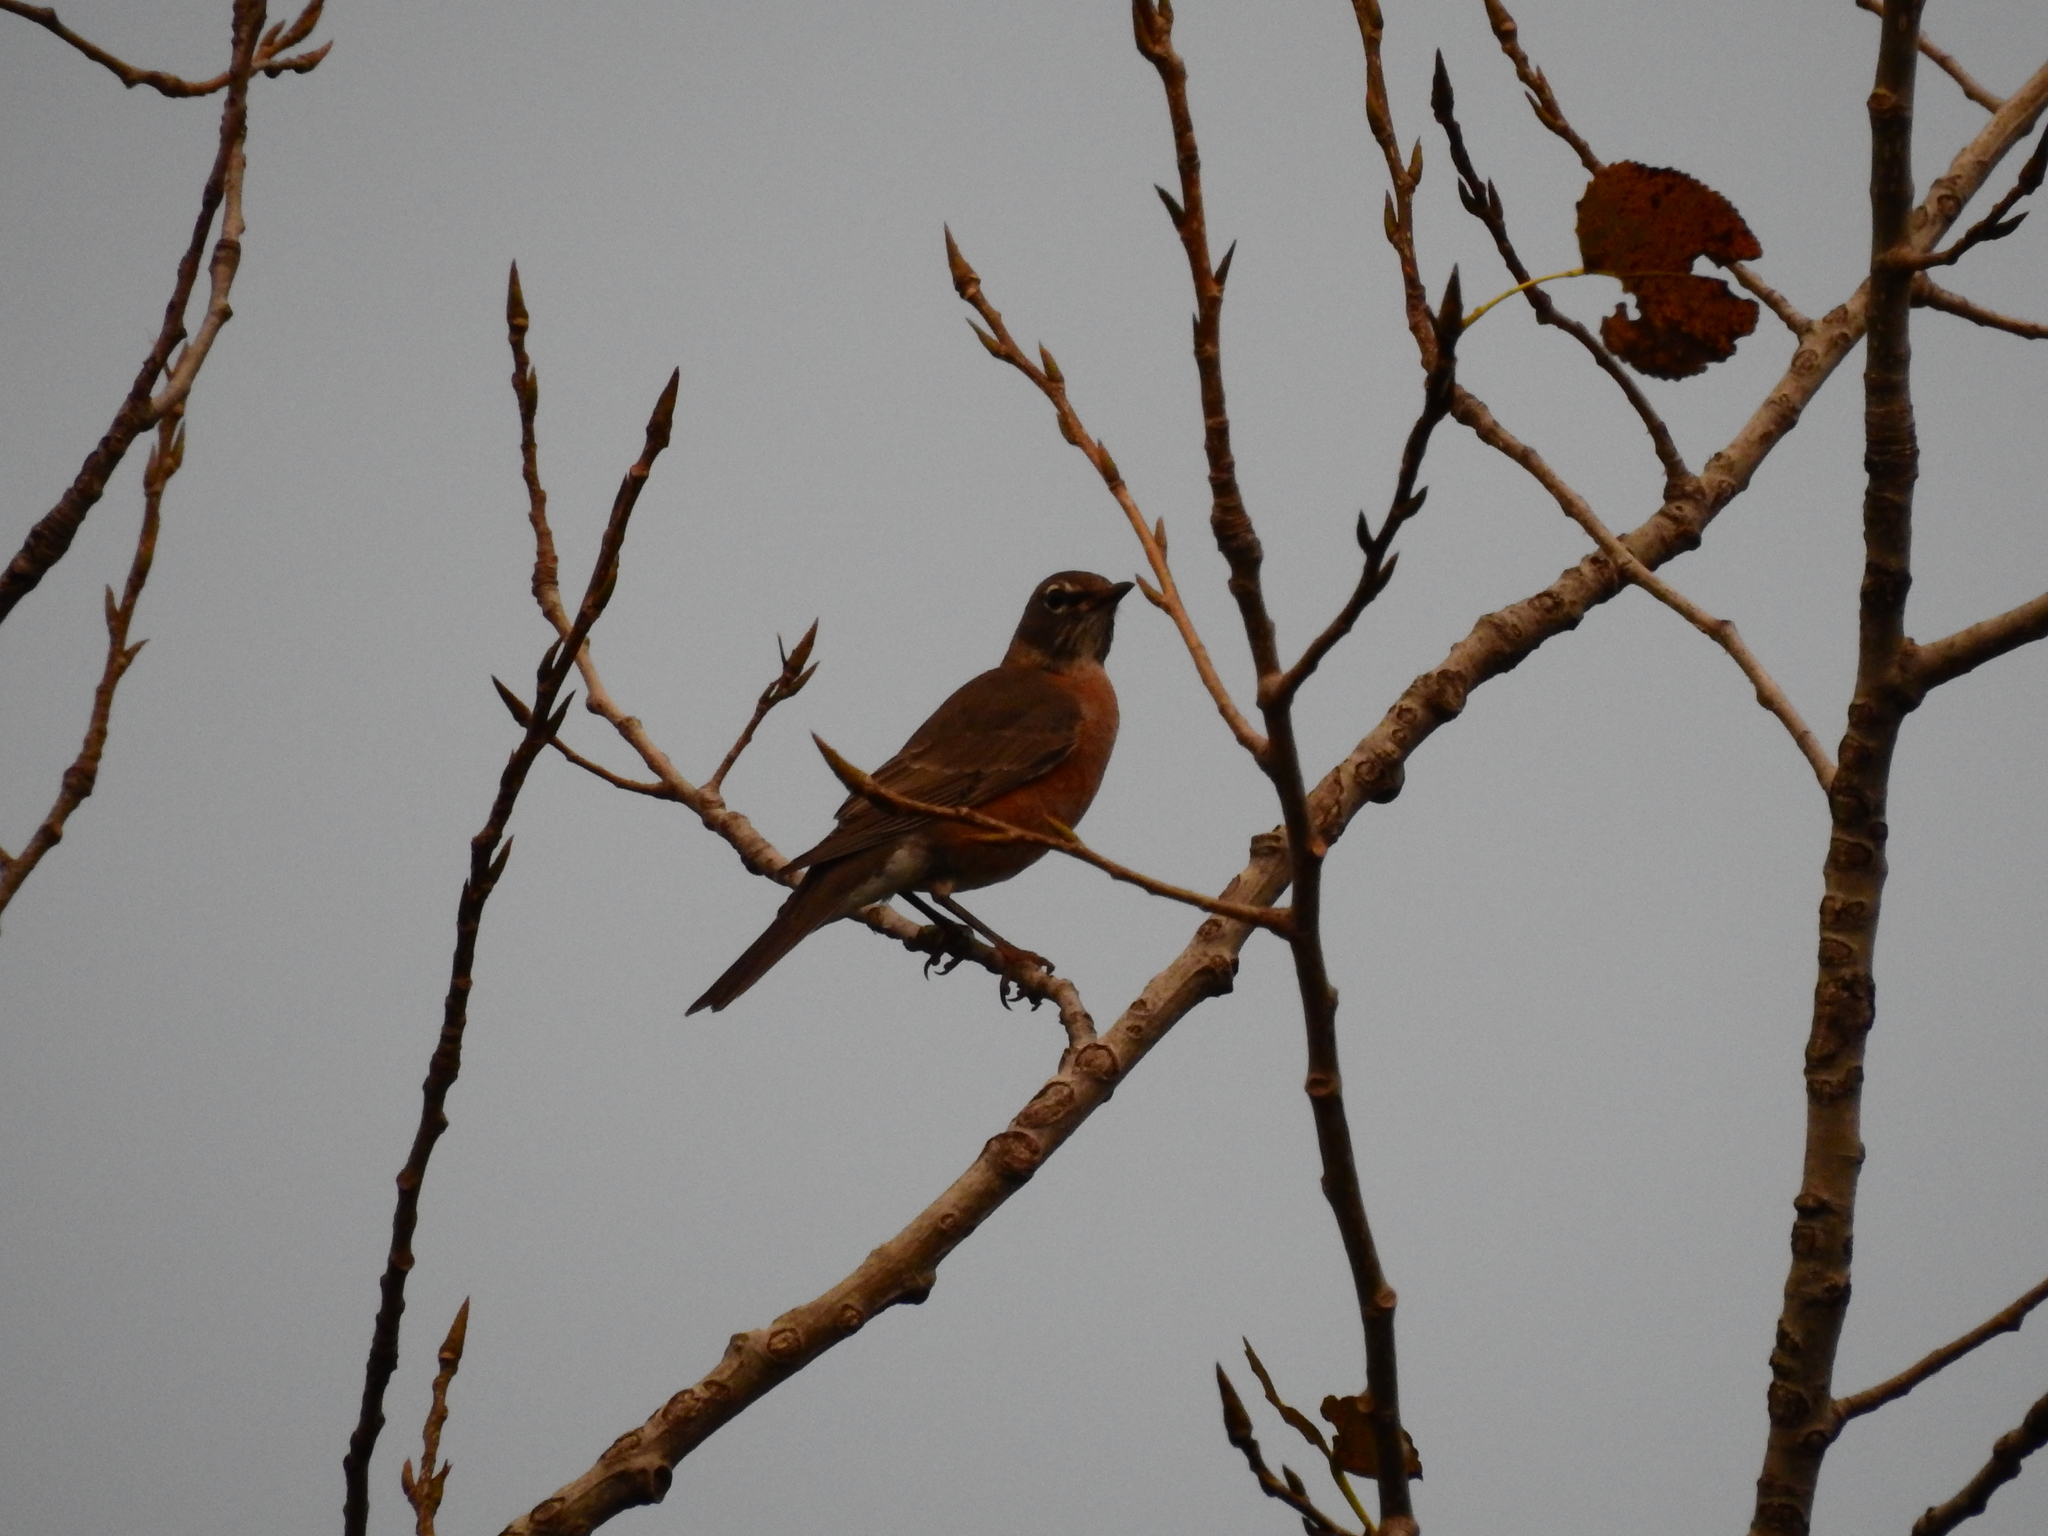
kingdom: Animalia
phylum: Chordata
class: Aves
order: Passeriformes
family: Turdidae
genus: Turdus
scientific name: Turdus migratorius
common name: American robin
